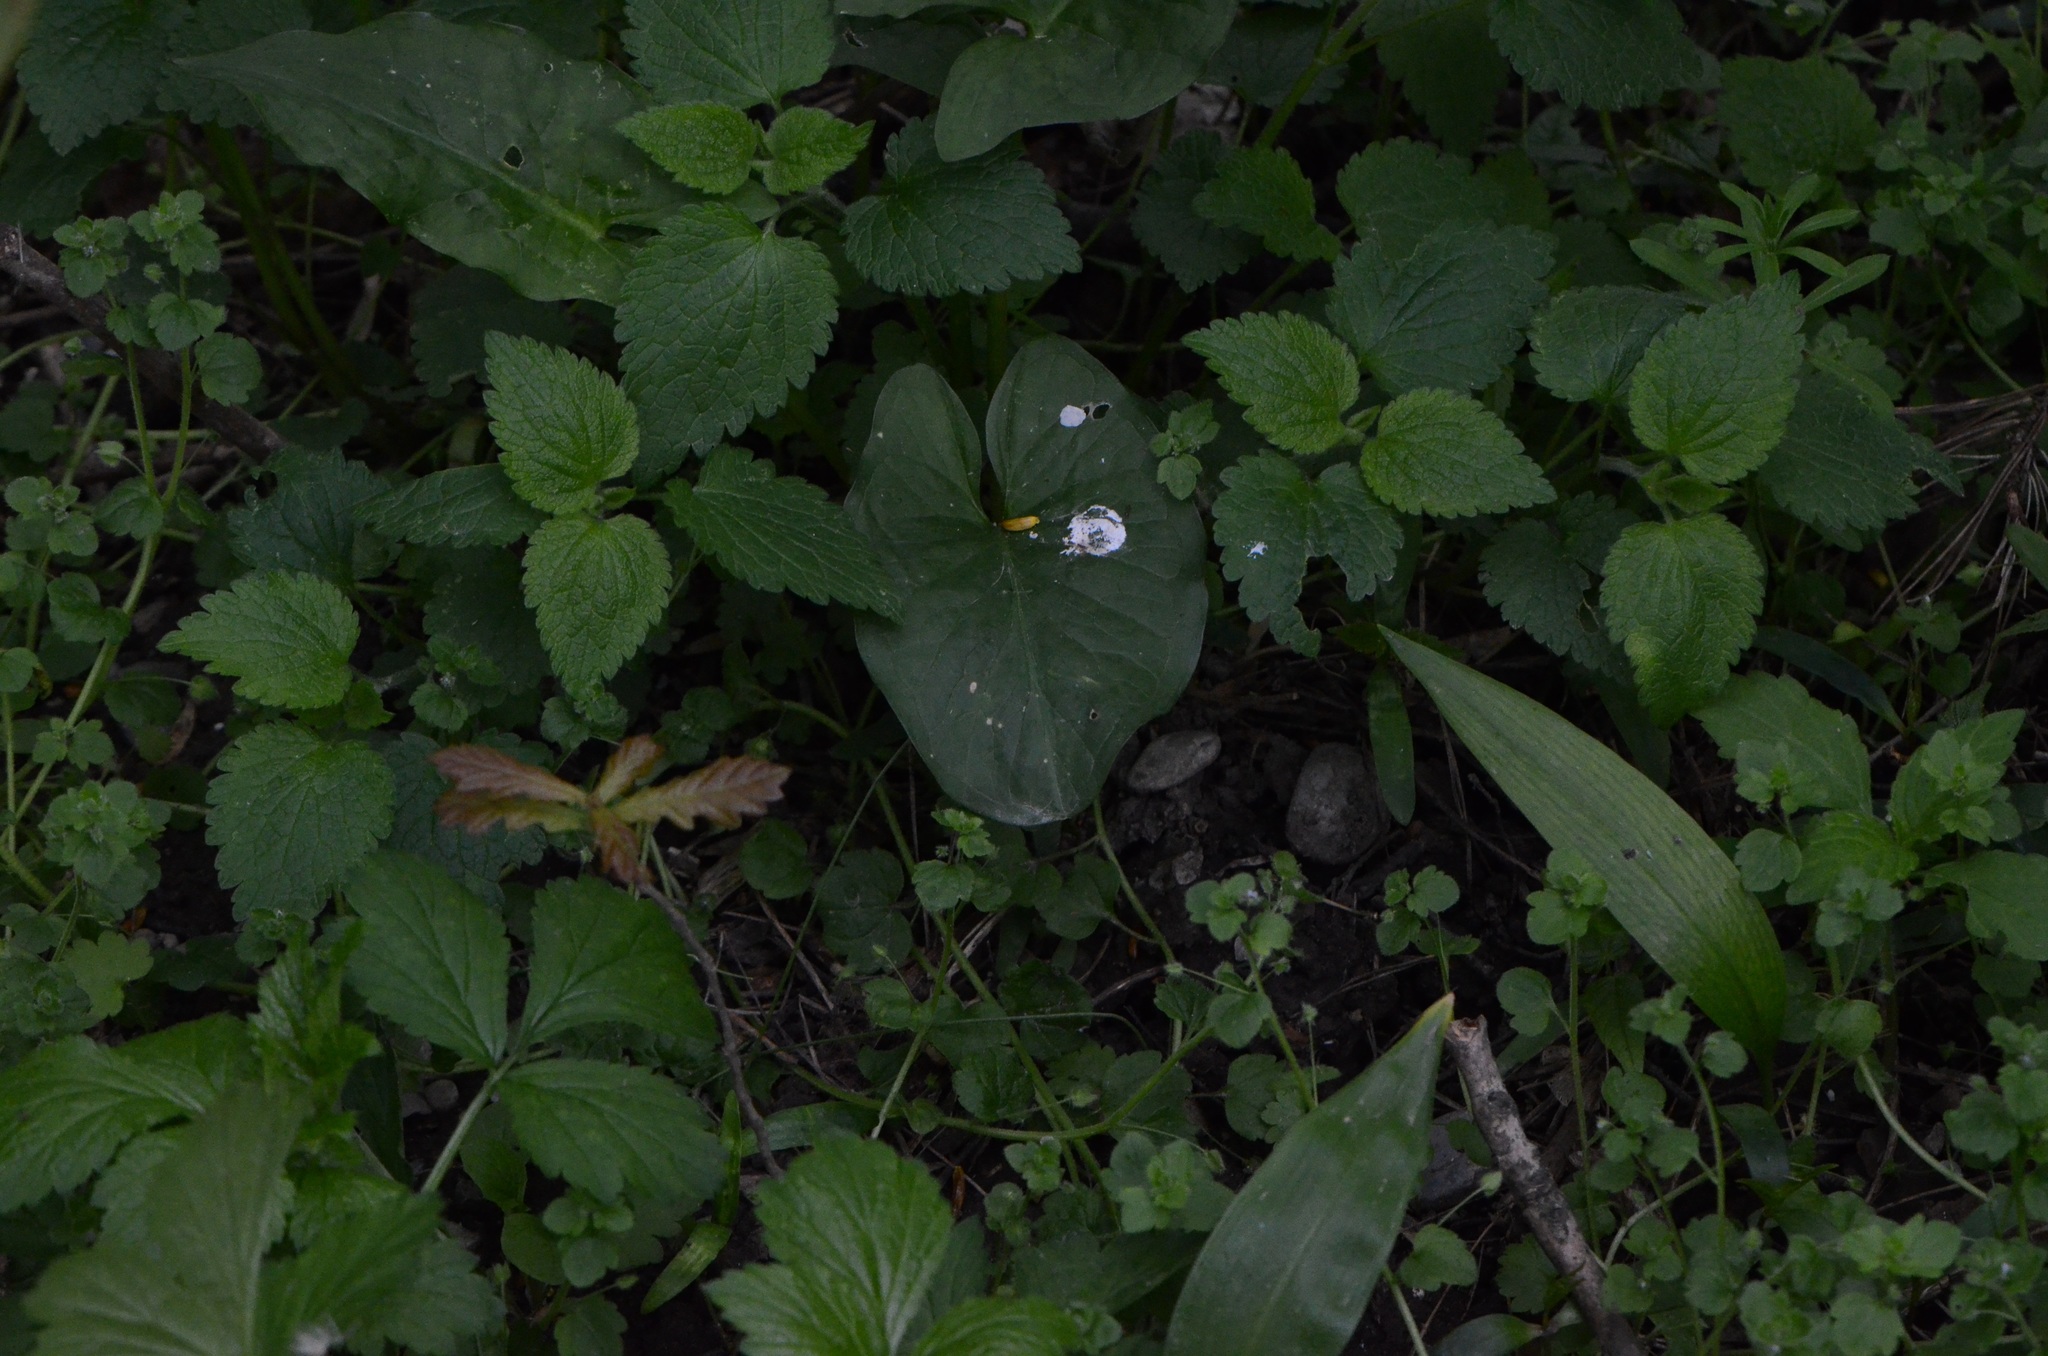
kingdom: Plantae
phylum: Tracheophyta
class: Liliopsida
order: Alismatales
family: Araceae
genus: Arum
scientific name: Arum cylindraceum
